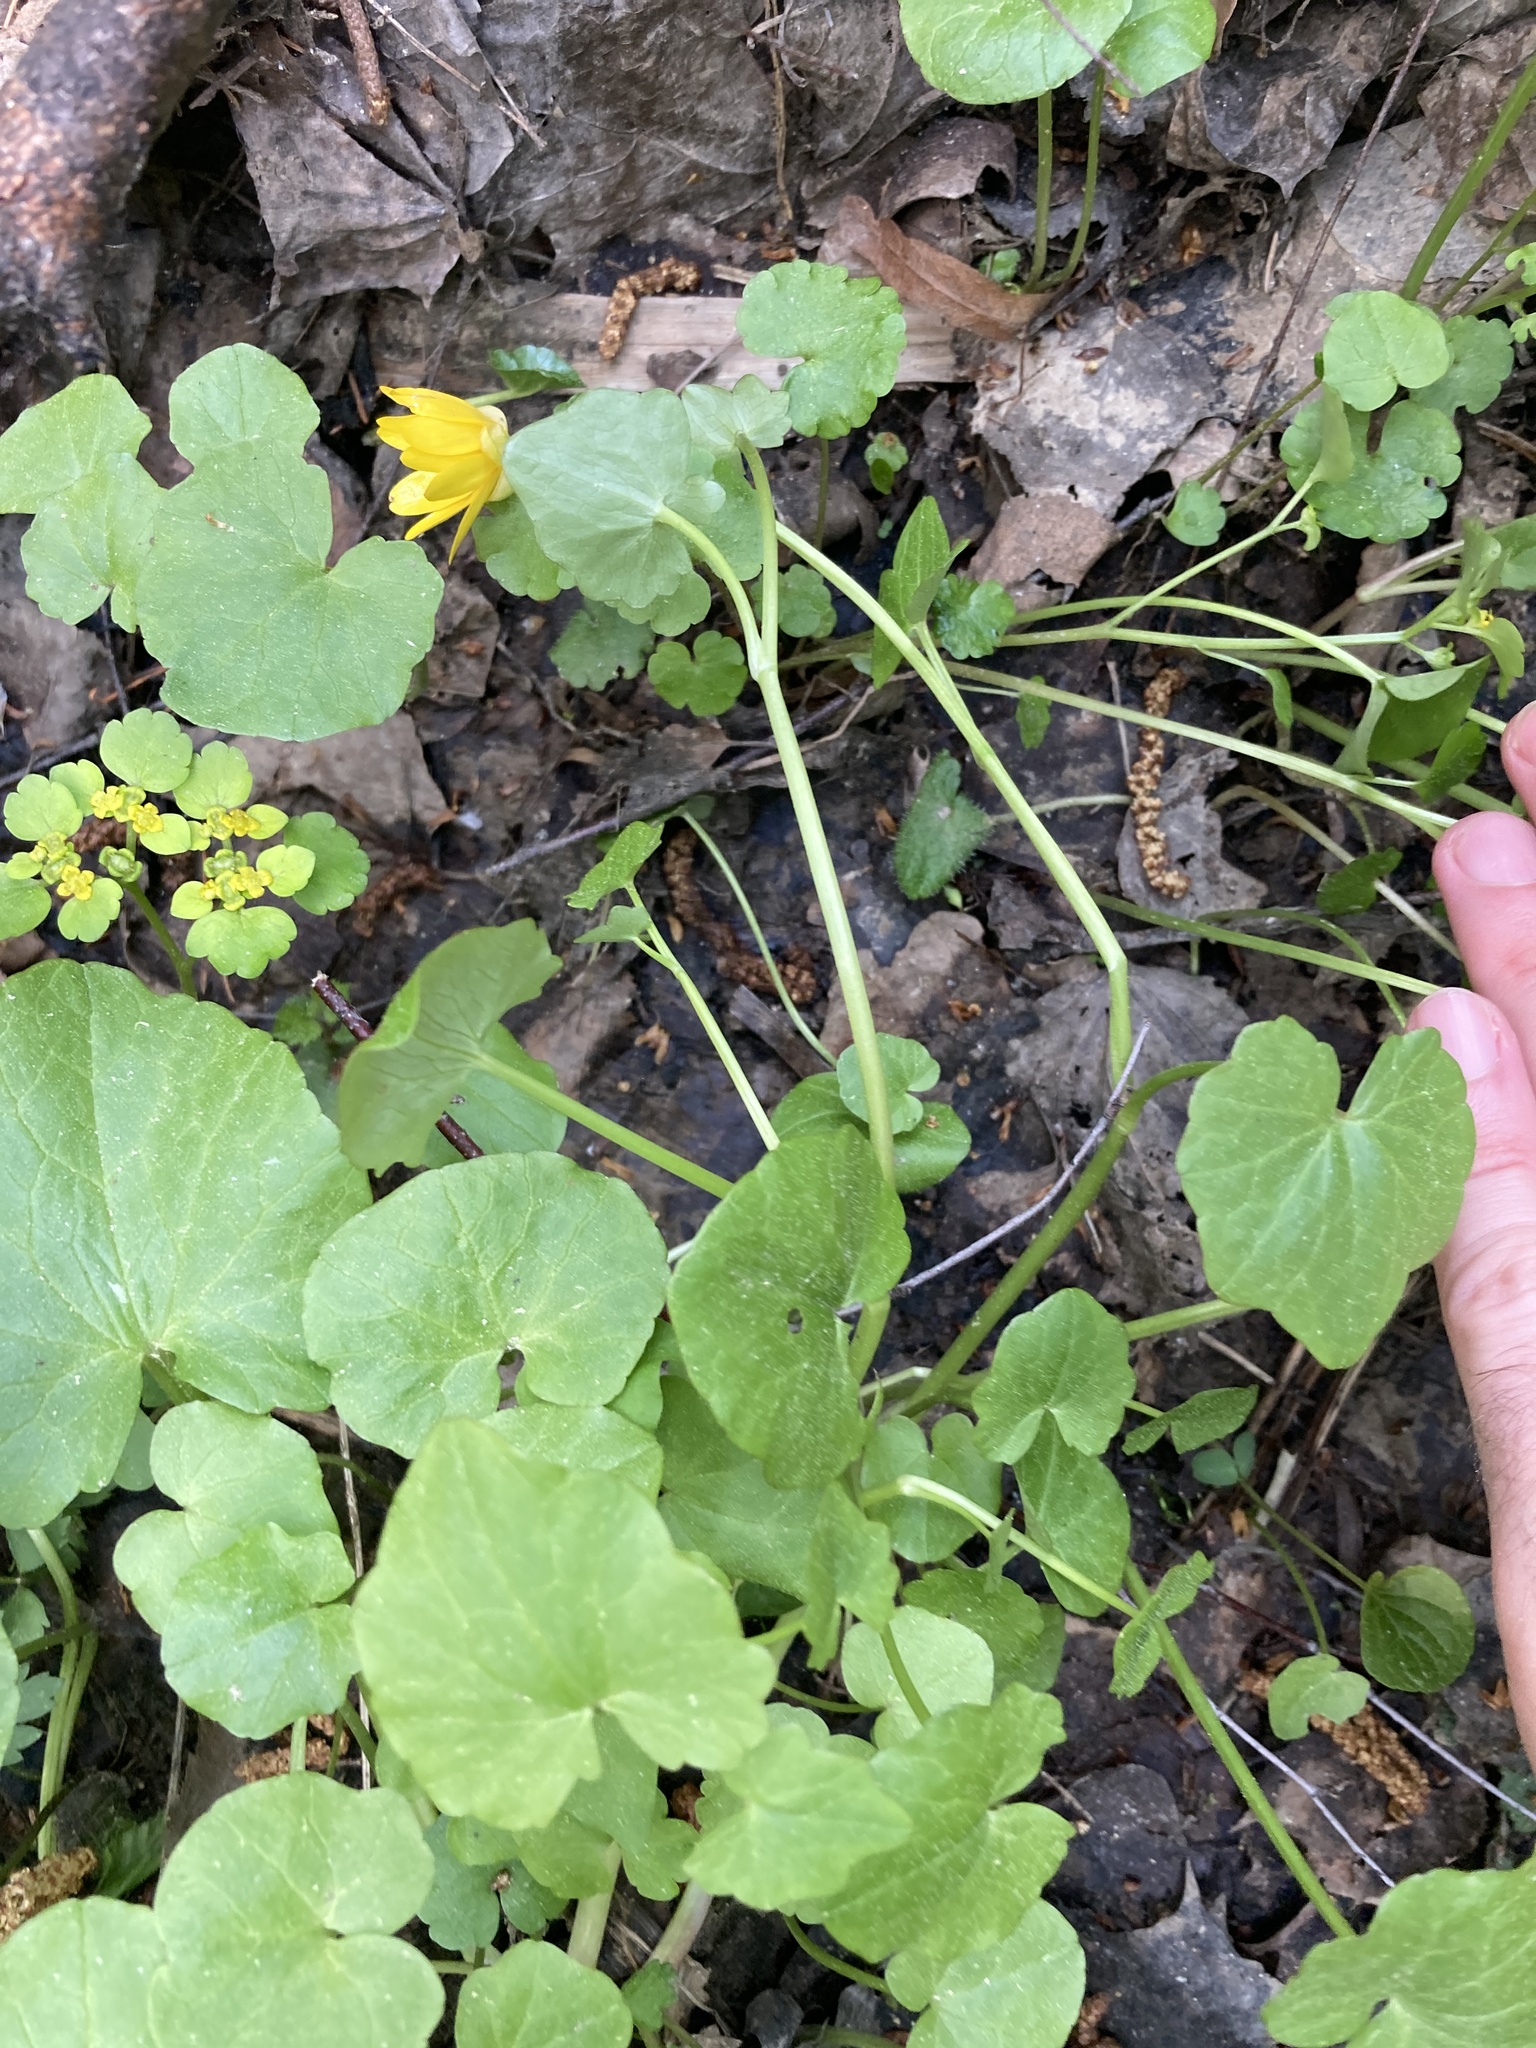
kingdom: Plantae
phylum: Tracheophyta
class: Magnoliopsida
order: Ranunculales
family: Ranunculaceae
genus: Ficaria
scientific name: Ficaria verna
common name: Lesser celandine
